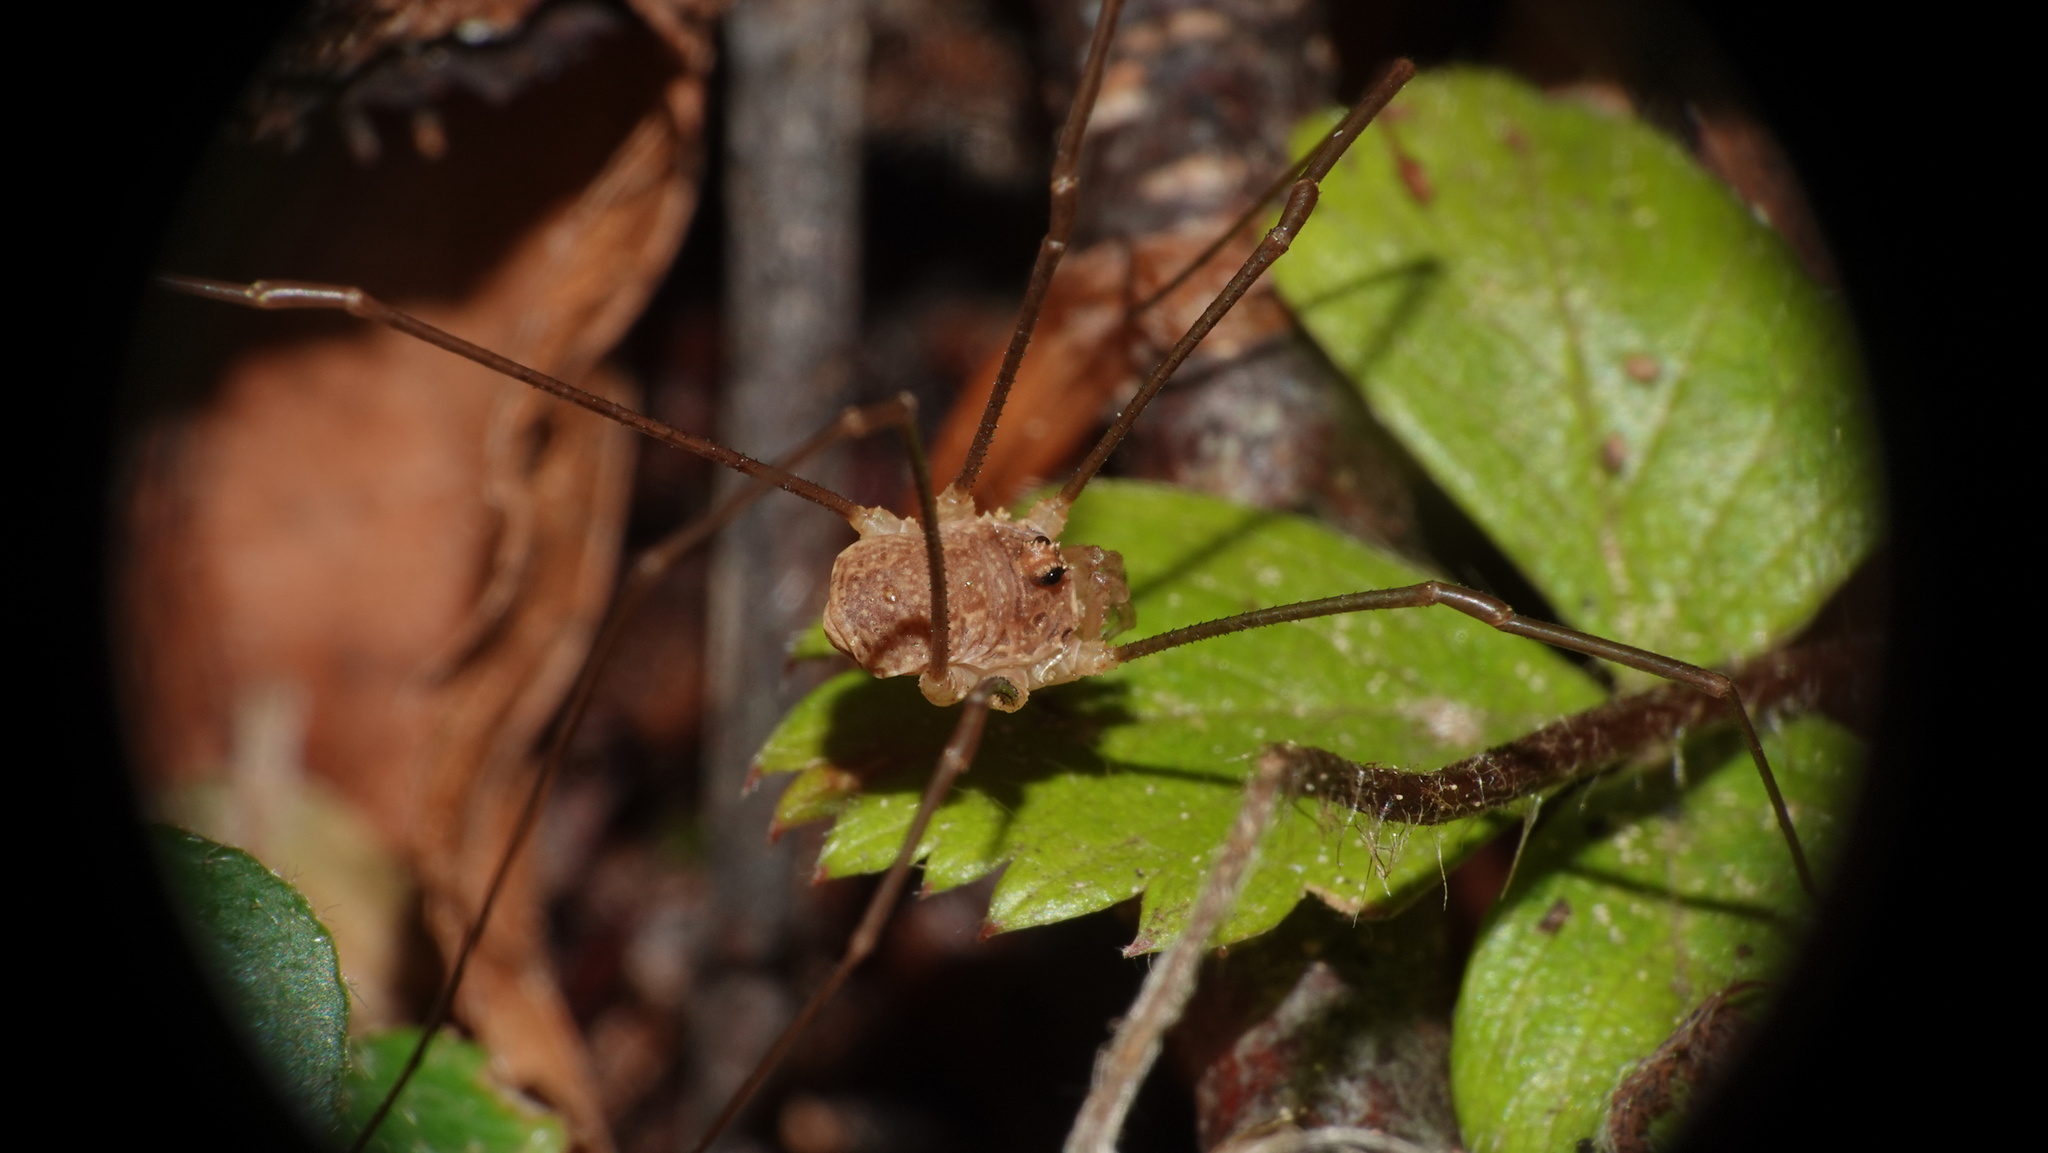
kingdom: Animalia
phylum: Arthropoda
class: Arachnida
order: Opiliones
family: Phalangiidae
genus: Rilaena
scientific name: Rilaena triangularis
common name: Spring harvestman
